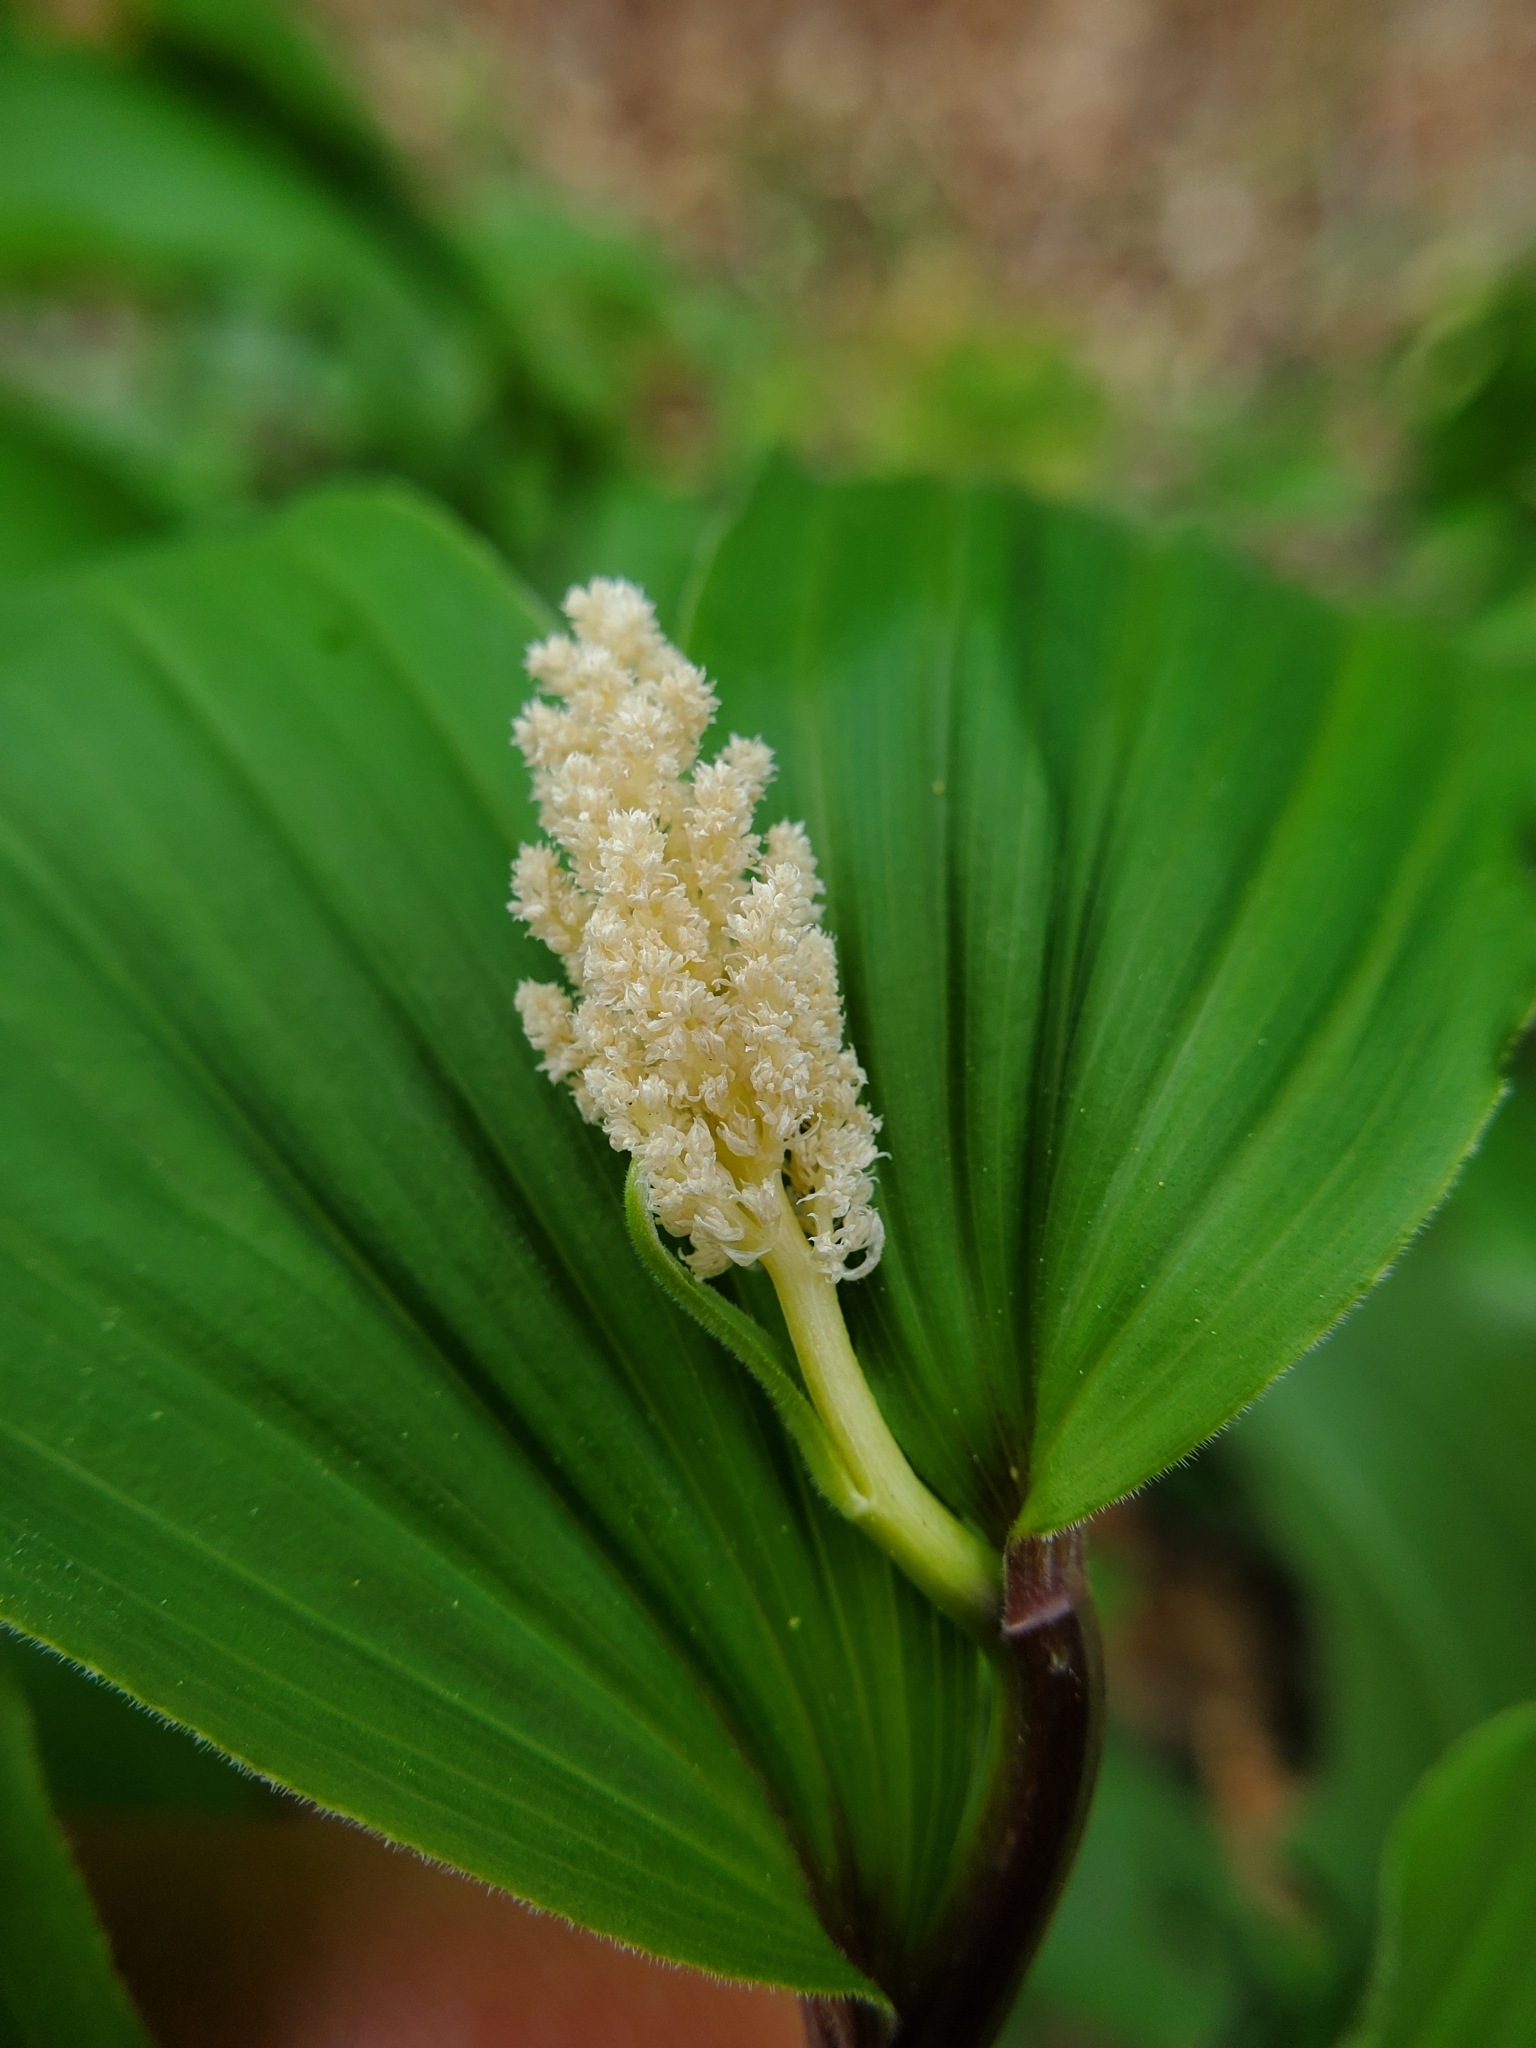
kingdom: Plantae
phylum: Tracheophyta
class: Liliopsida
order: Asparagales
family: Asparagaceae
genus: Maianthemum
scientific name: Maianthemum racemosum
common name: False spikenard
